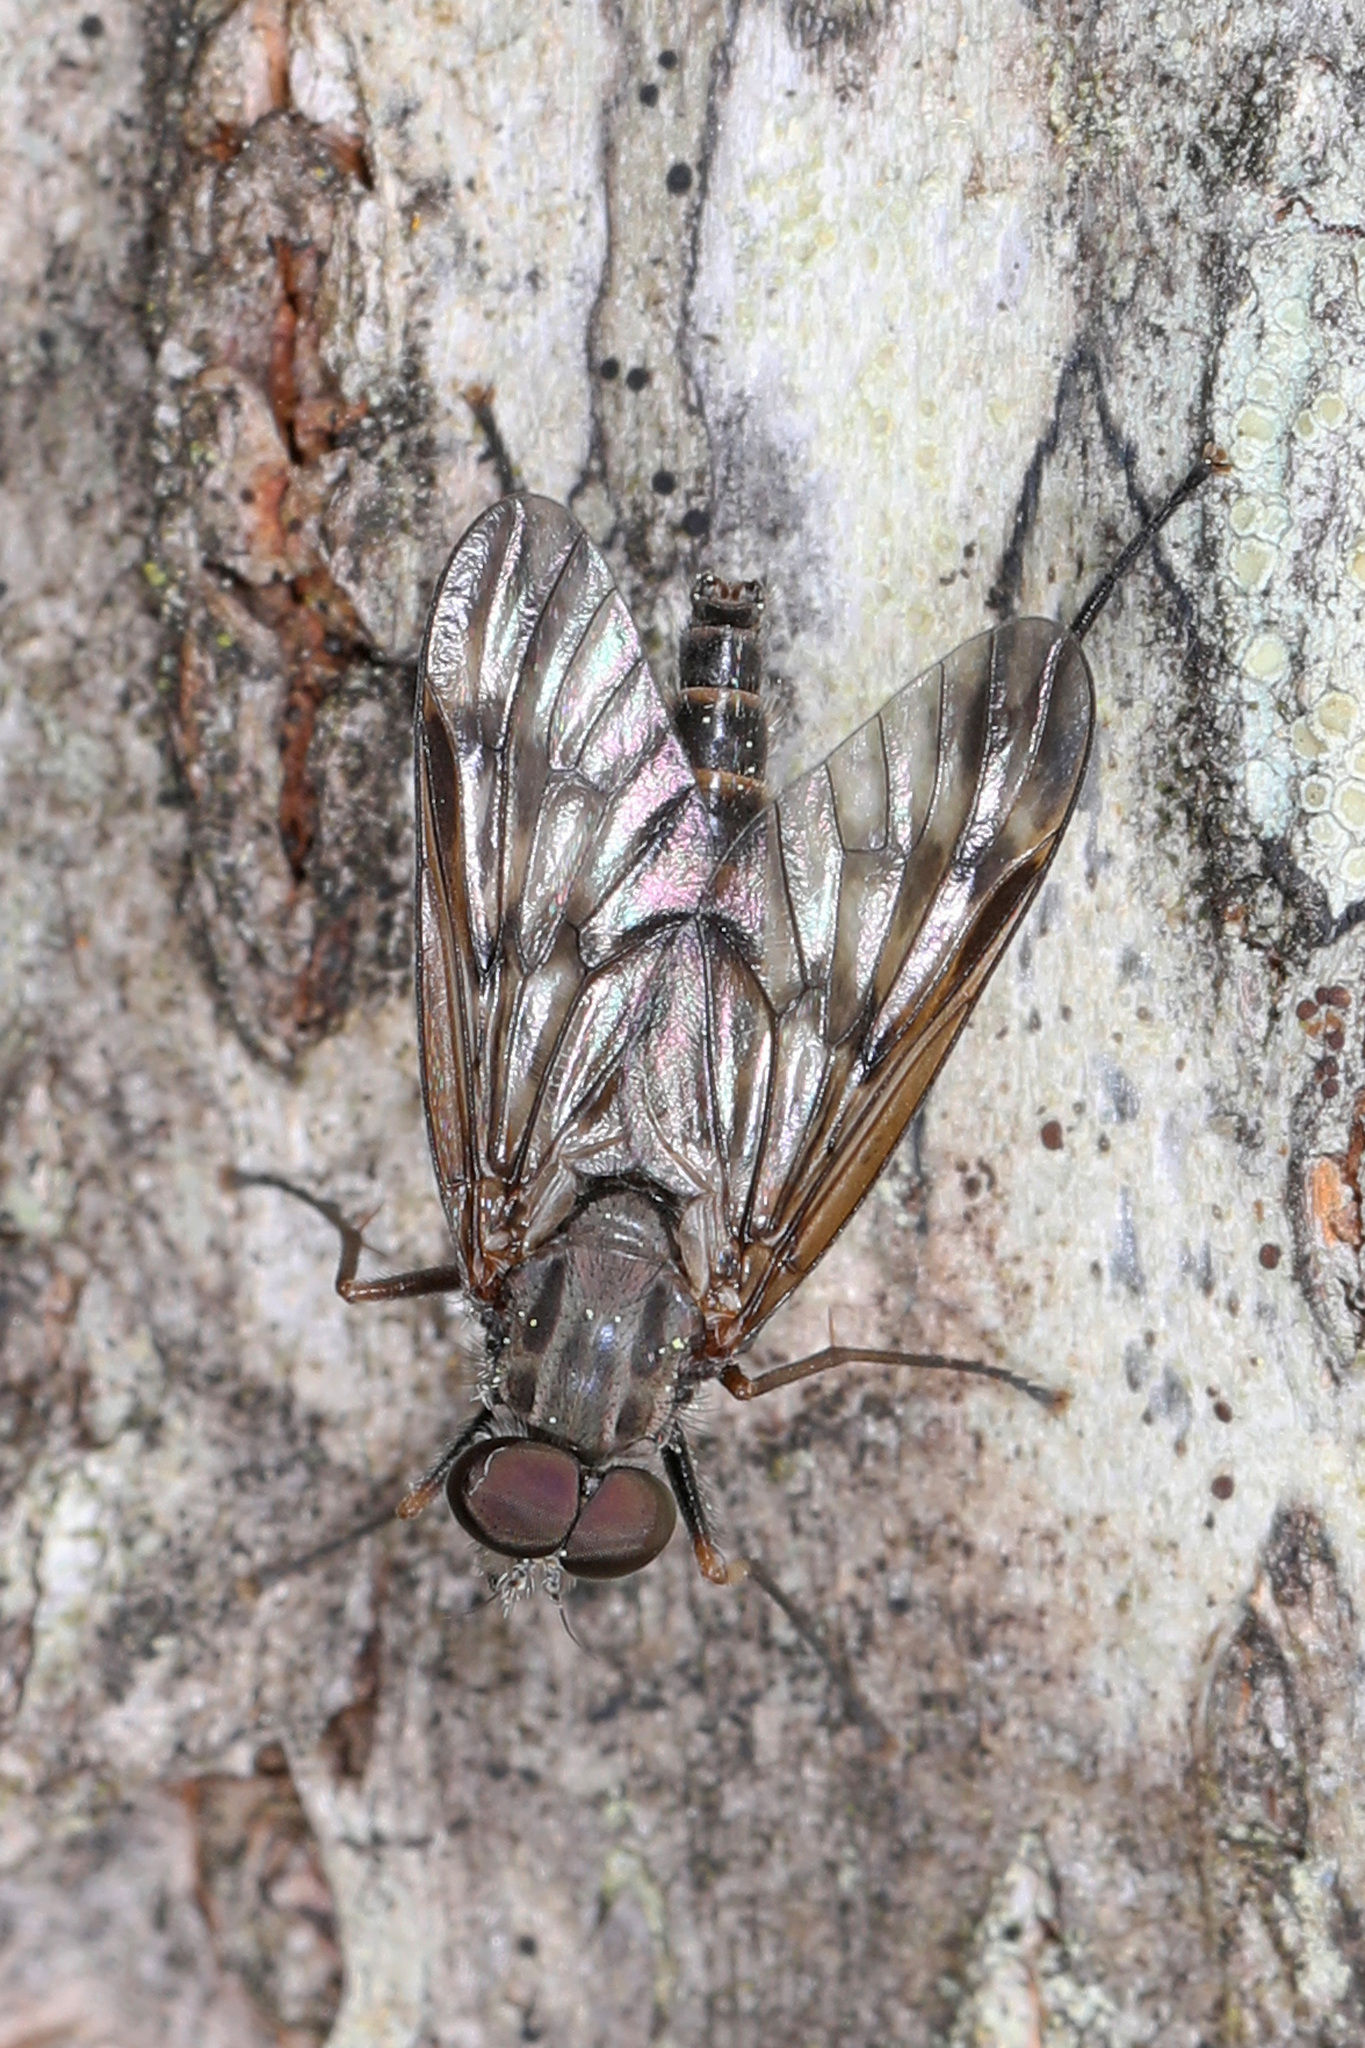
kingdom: Animalia
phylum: Arthropoda
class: Insecta
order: Diptera
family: Rhagionidae
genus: Rhagio
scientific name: Rhagio mystaceus
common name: Common snipe fly
